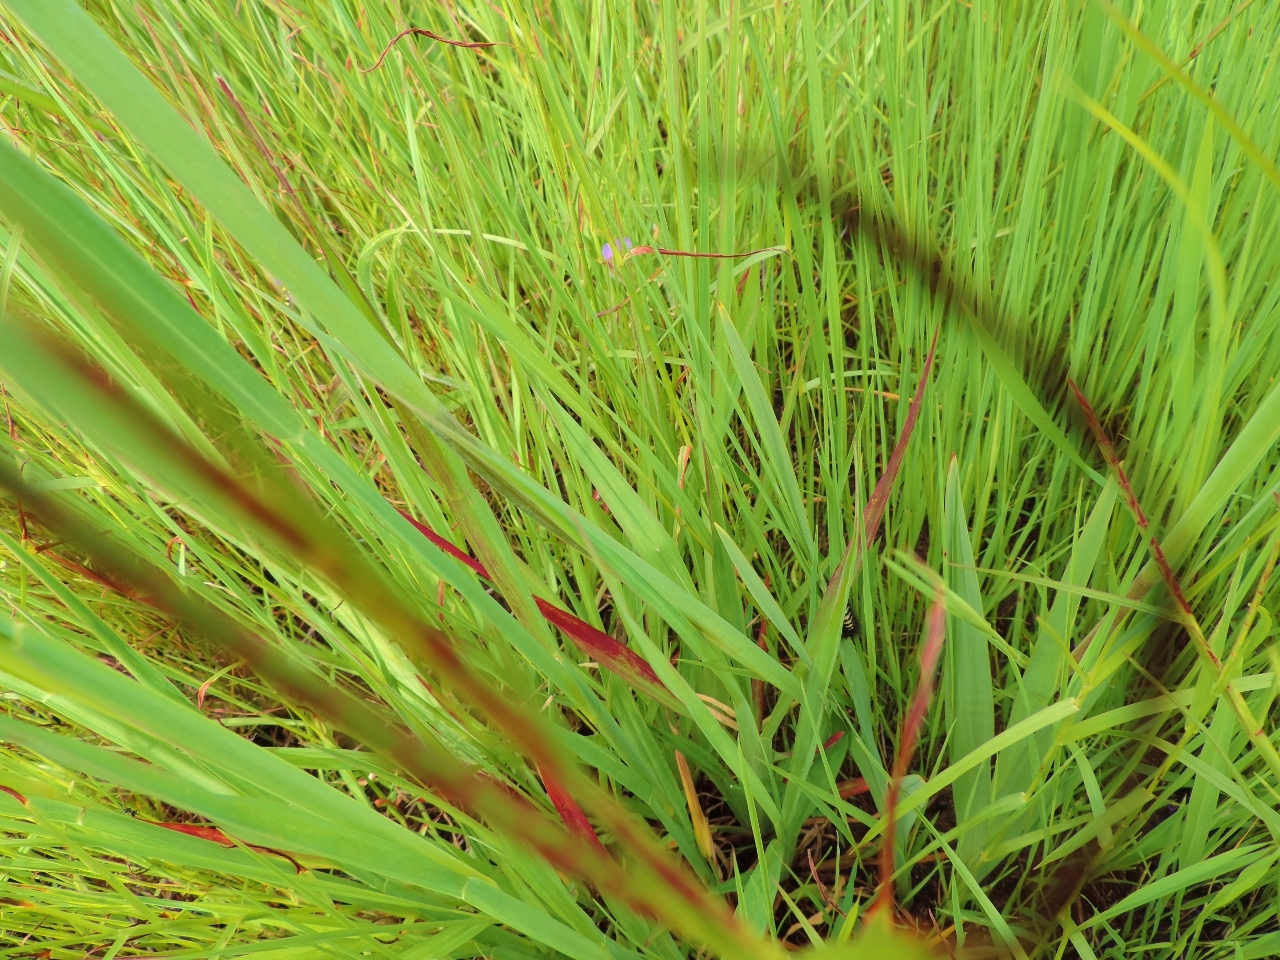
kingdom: Plantae
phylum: Tracheophyta
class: Liliopsida
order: Asparagales
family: Iridaceae
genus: Gladiolus
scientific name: Gladiolus dalenii
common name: Cornflag
